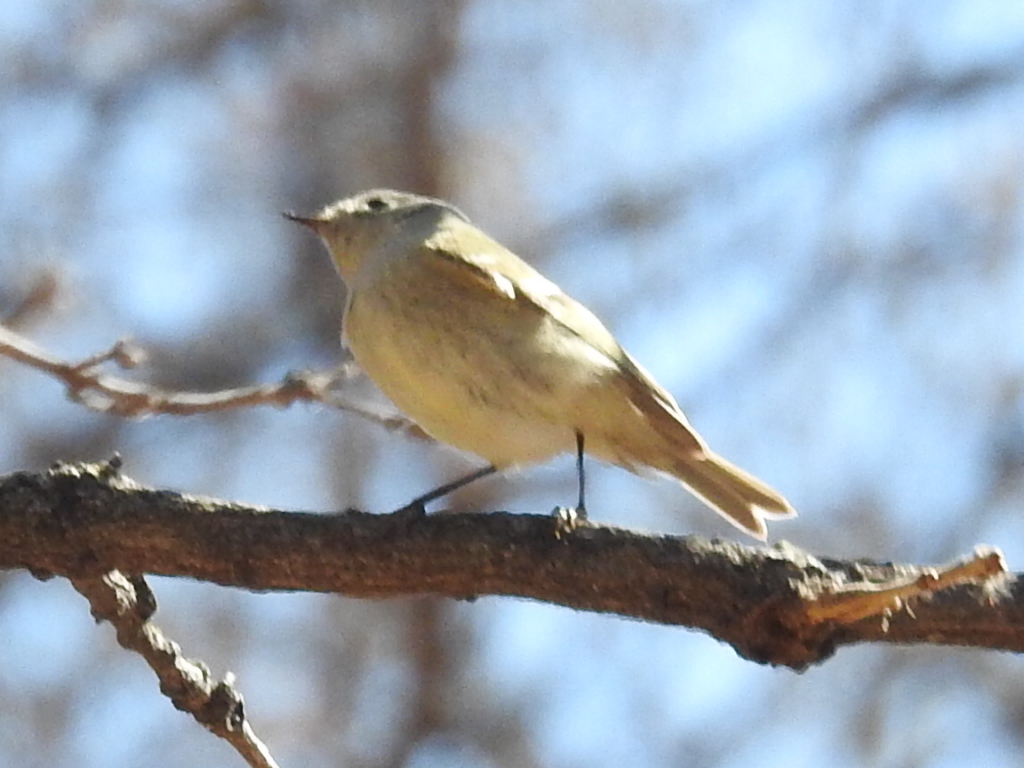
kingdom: Animalia
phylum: Chordata
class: Aves
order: Passeriformes
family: Regulidae
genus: Regulus
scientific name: Regulus calendula
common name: Ruby-crowned kinglet
